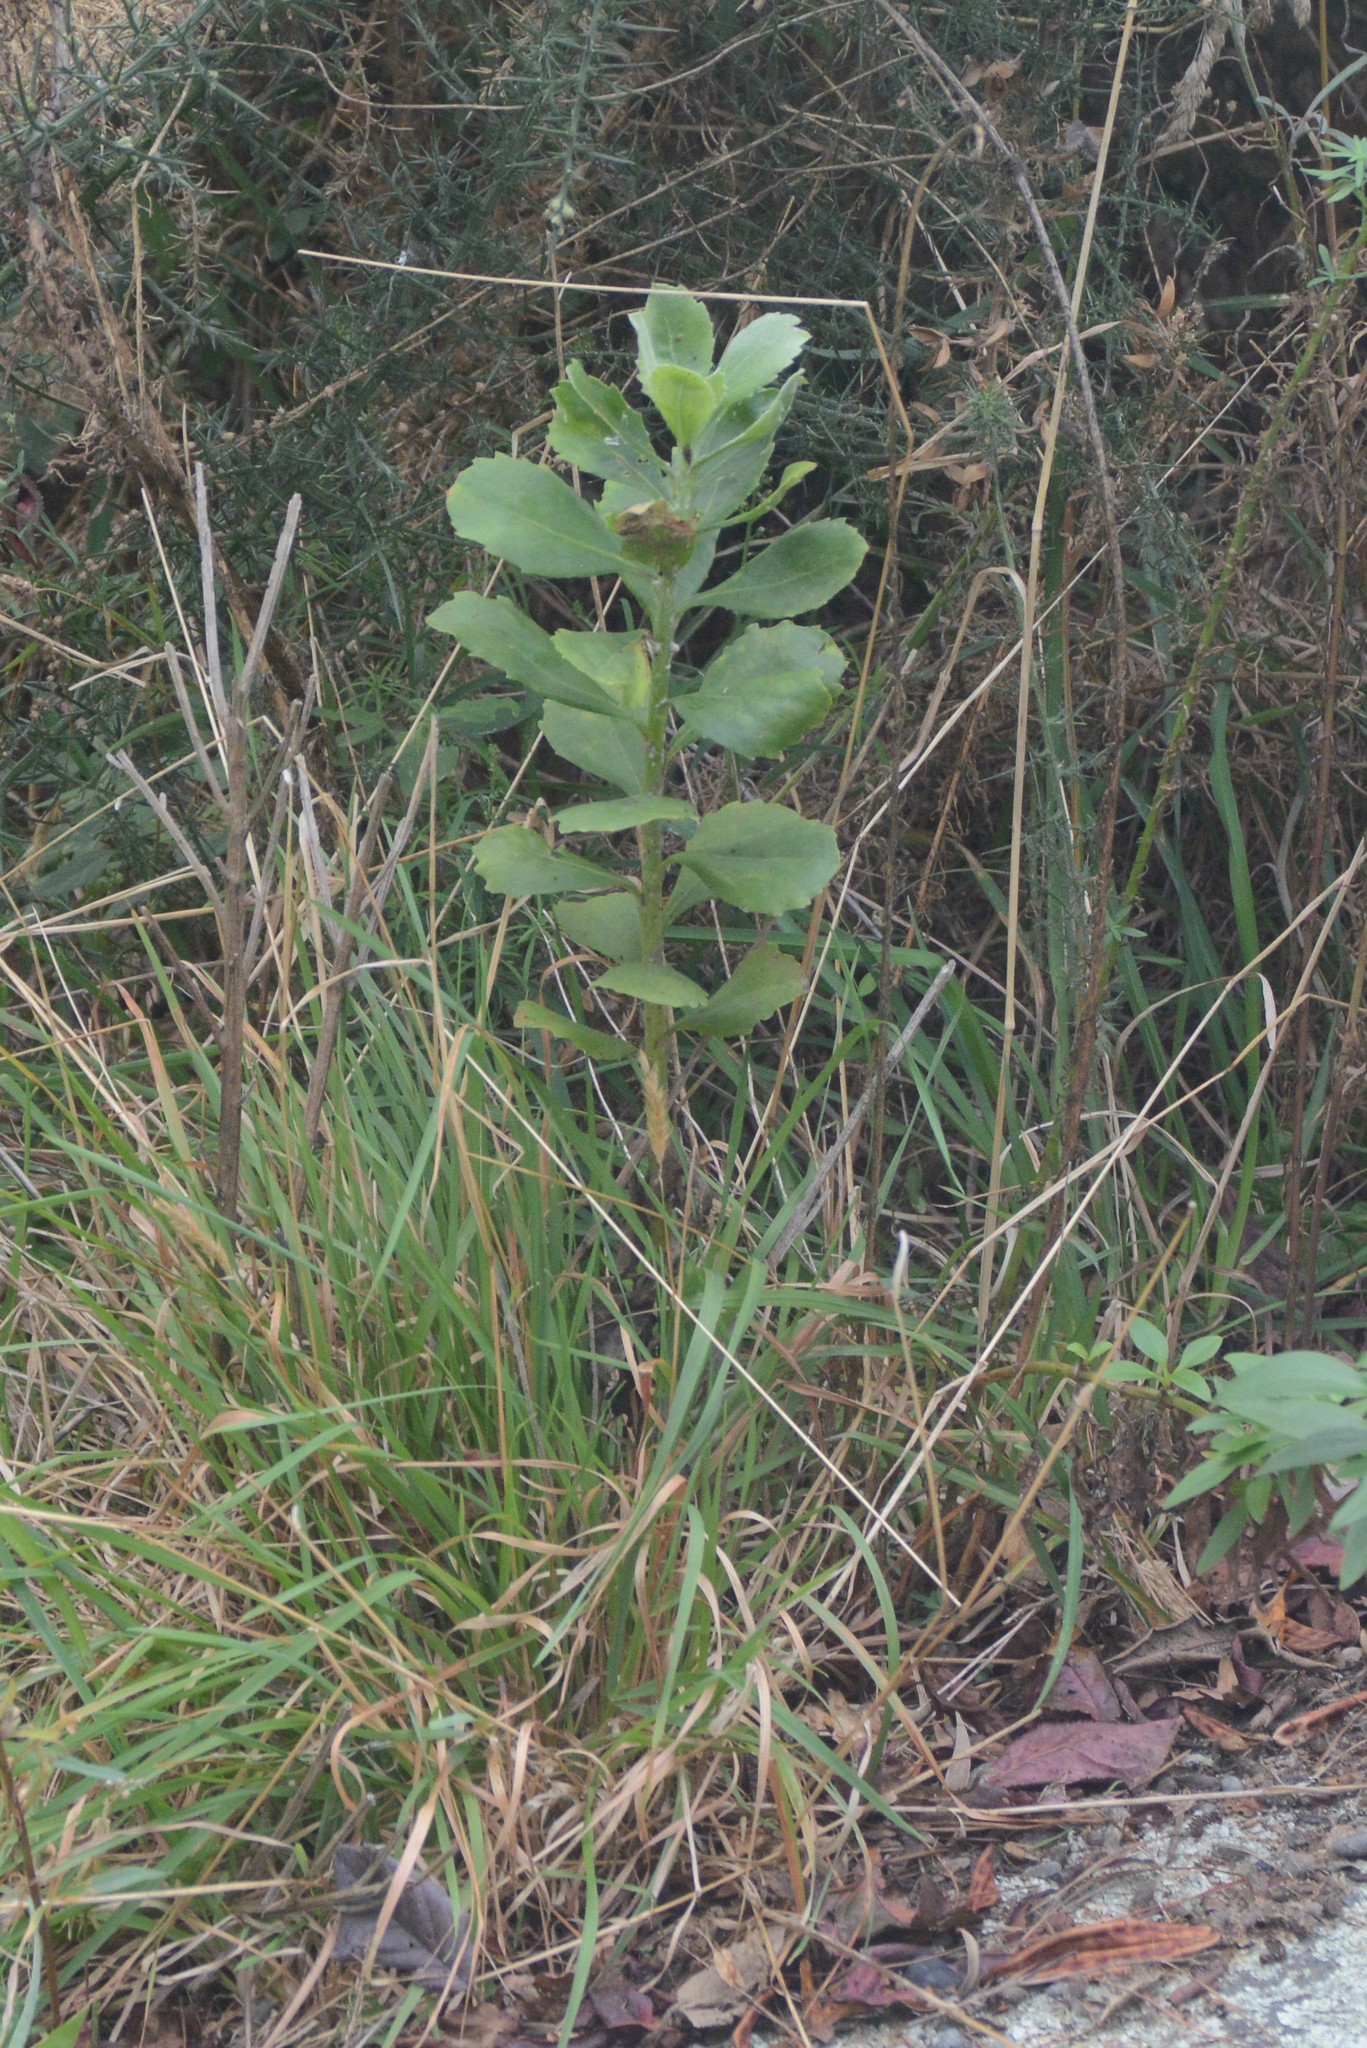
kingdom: Plantae
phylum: Tracheophyta
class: Magnoliopsida
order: Asterales
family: Asteraceae
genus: Osteospermum
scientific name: Osteospermum moniliferum
